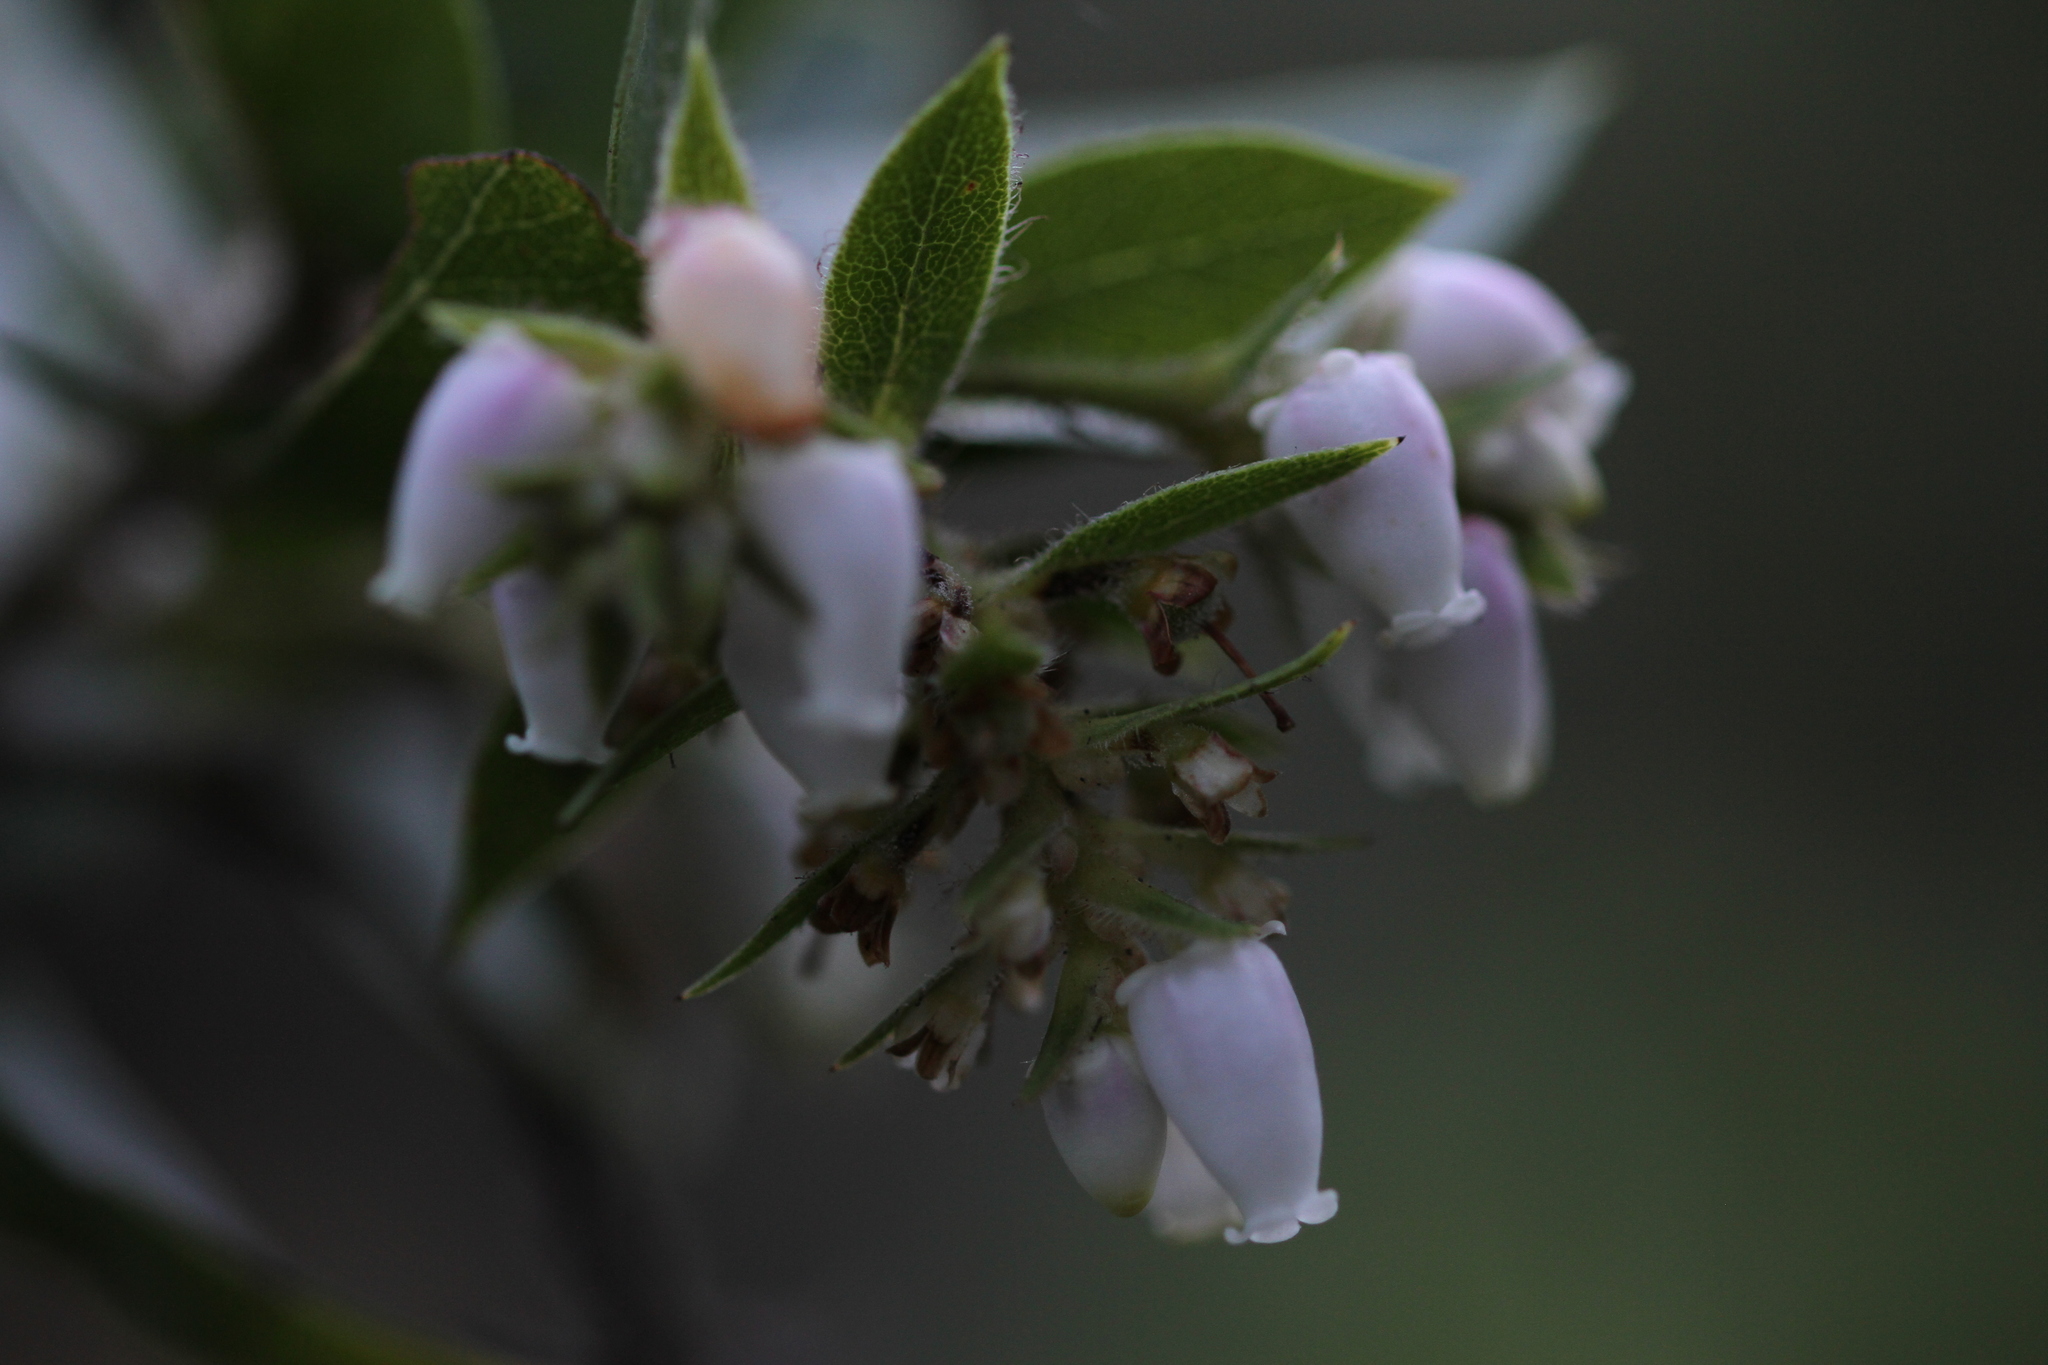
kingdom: Plantae
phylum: Tracheophyta
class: Magnoliopsida
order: Ericales
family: Ericaceae
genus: Arctostaphylos
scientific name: Arctostaphylos montaraensis
